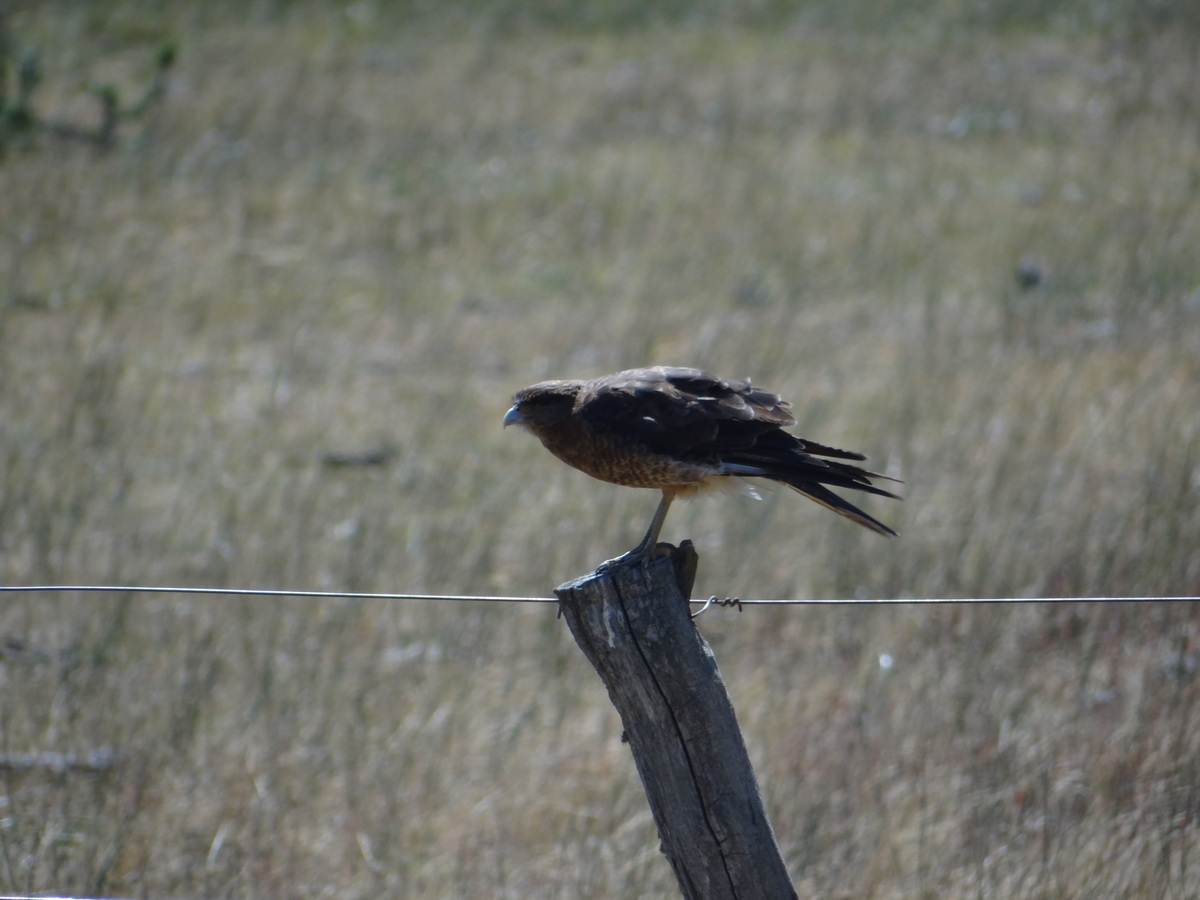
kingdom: Animalia
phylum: Chordata
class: Aves
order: Falconiformes
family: Falconidae
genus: Daptrius
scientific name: Daptrius
